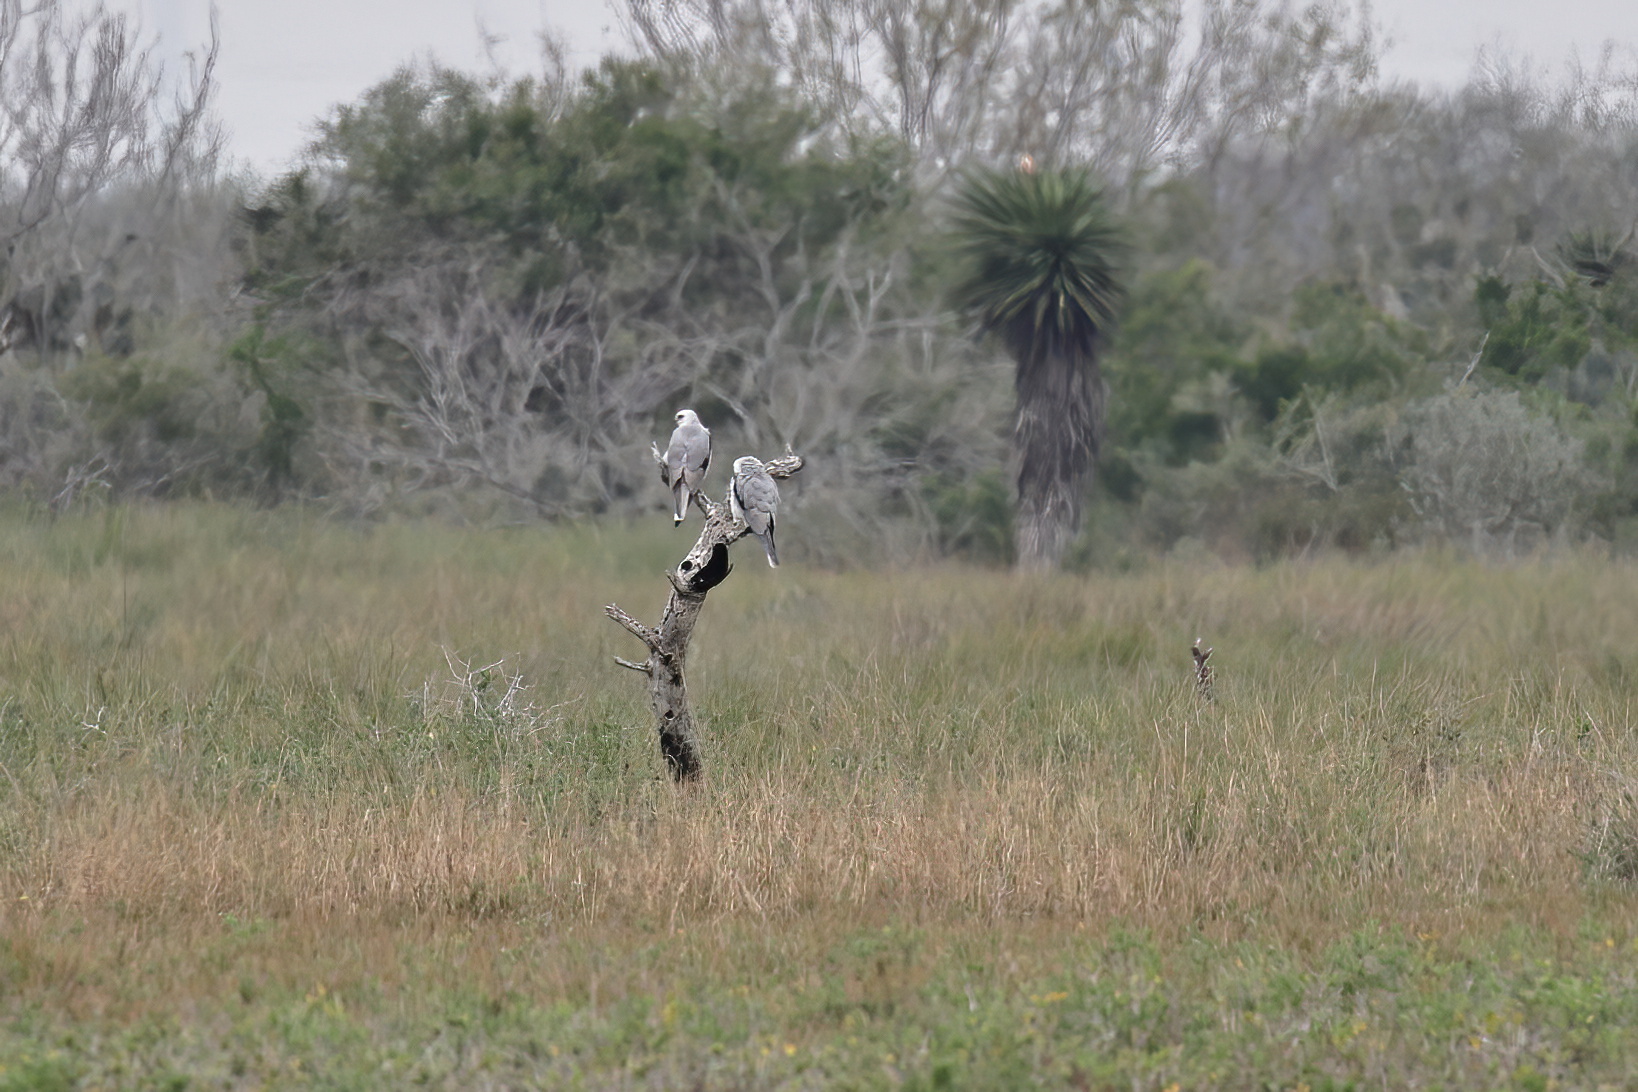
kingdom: Animalia
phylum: Chordata
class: Aves
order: Accipitriformes
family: Accipitridae
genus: Elanus
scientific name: Elanus leucurus
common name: White-tailed kite
